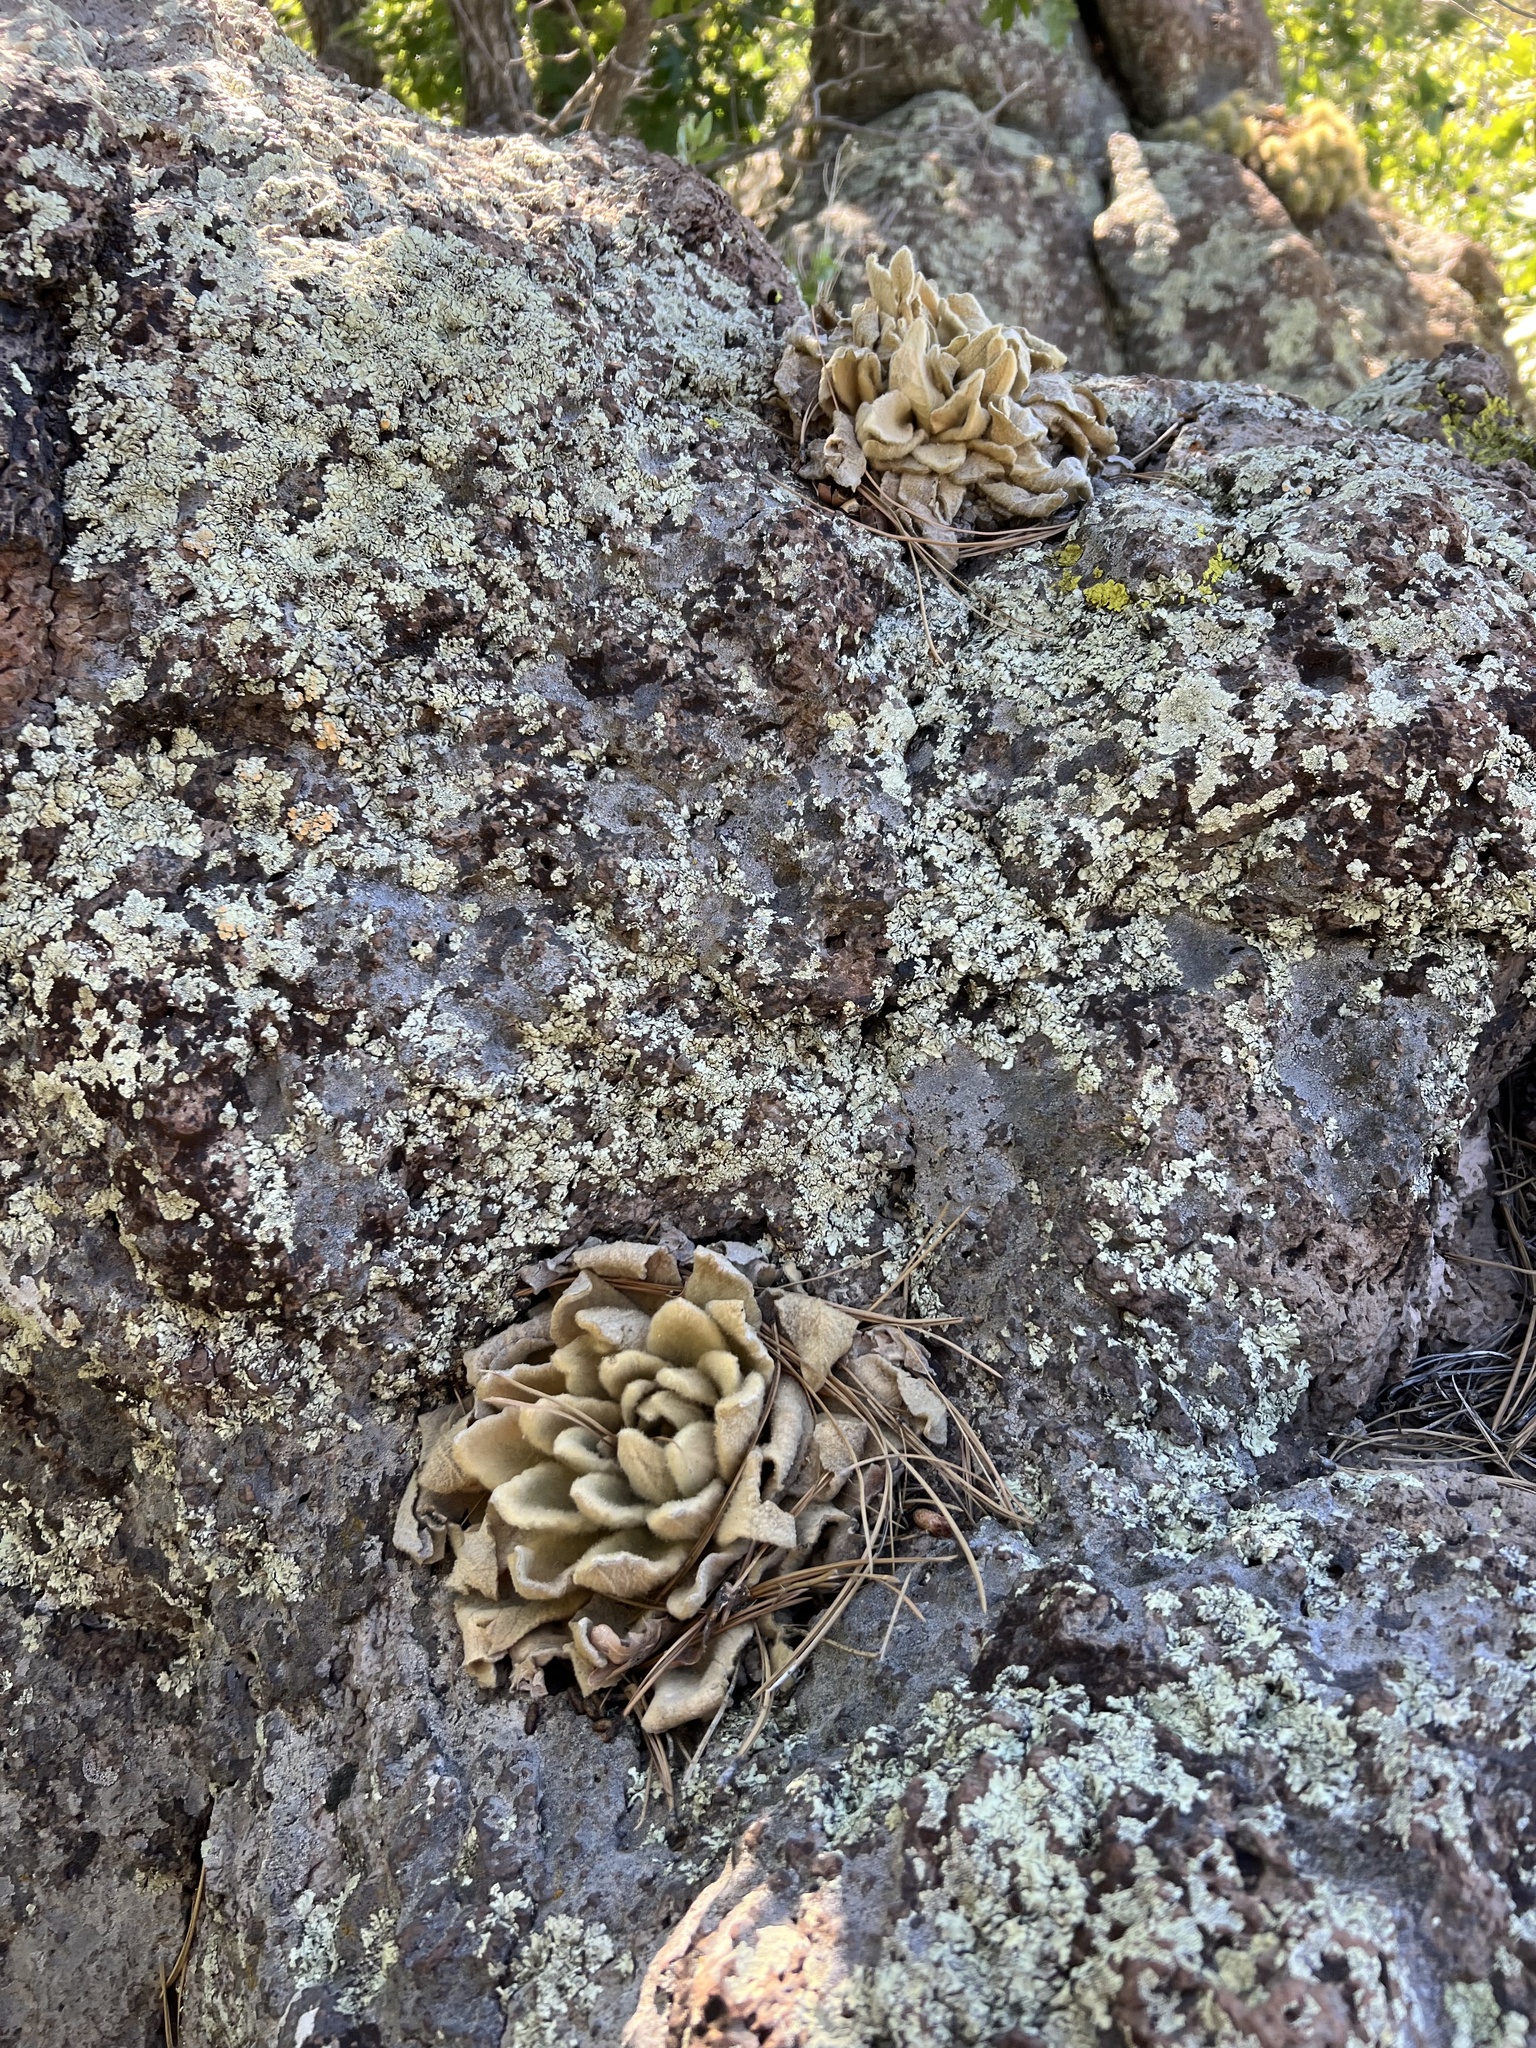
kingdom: Plantae
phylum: Tracheophyta
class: Magnoliopsida
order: Lamiales
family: Scrophulariaceae
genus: Verbascum
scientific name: Verbascum thapsus
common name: Common mullein
